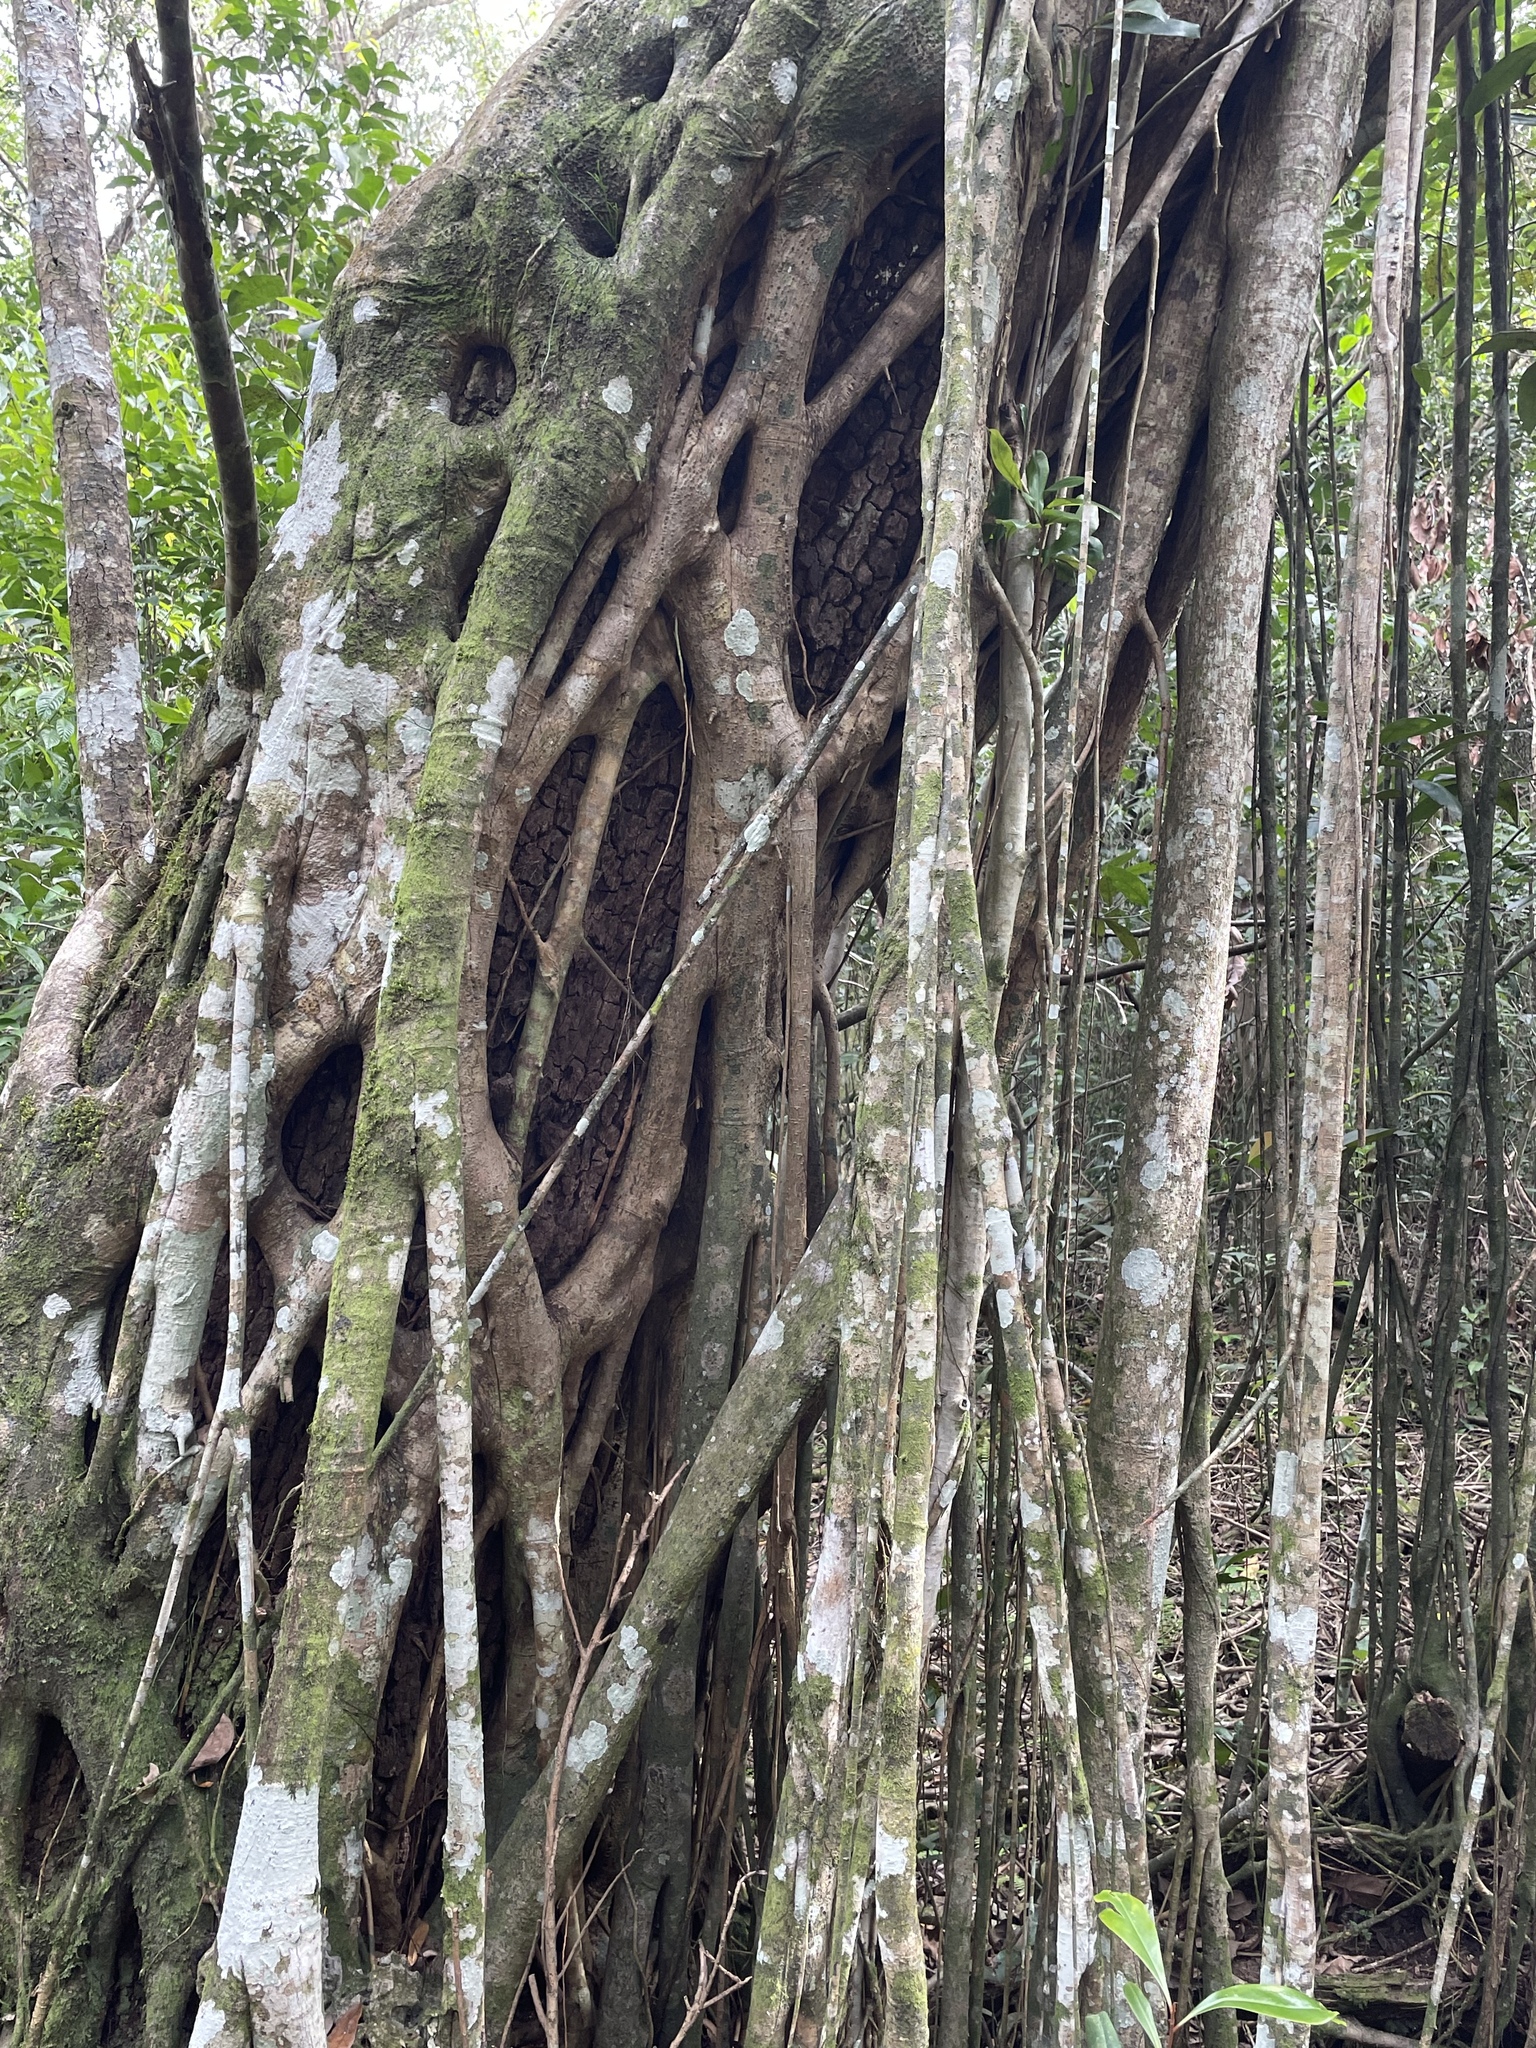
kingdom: Plantae
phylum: Tracheophyta
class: Magnoliopsida
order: Rosales
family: Moraceae
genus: Ficus
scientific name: Ficus aurea
